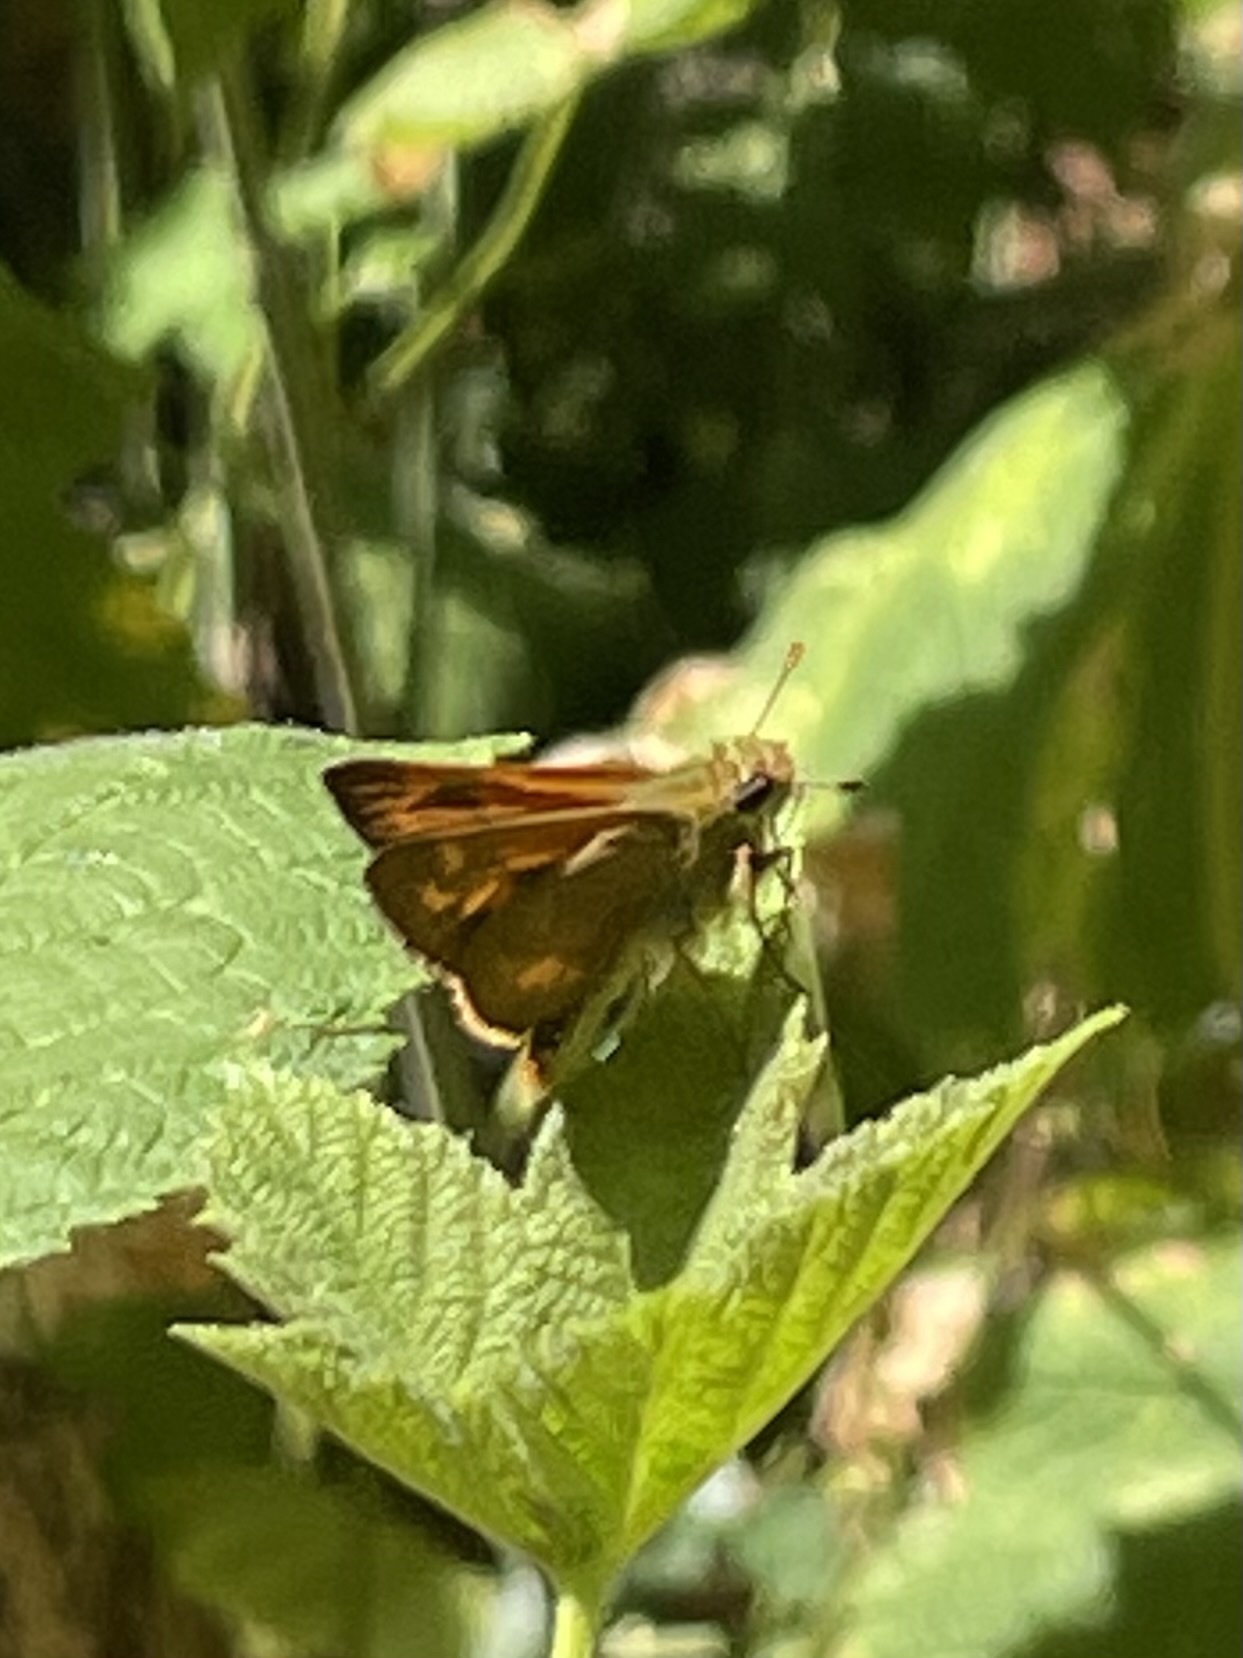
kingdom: Animalia
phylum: Arthropoda
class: Insecta
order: Lepidoptera
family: Hesperiidae
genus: Ochlodes
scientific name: Ochlodes sylvanoides
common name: Woodland skipper
